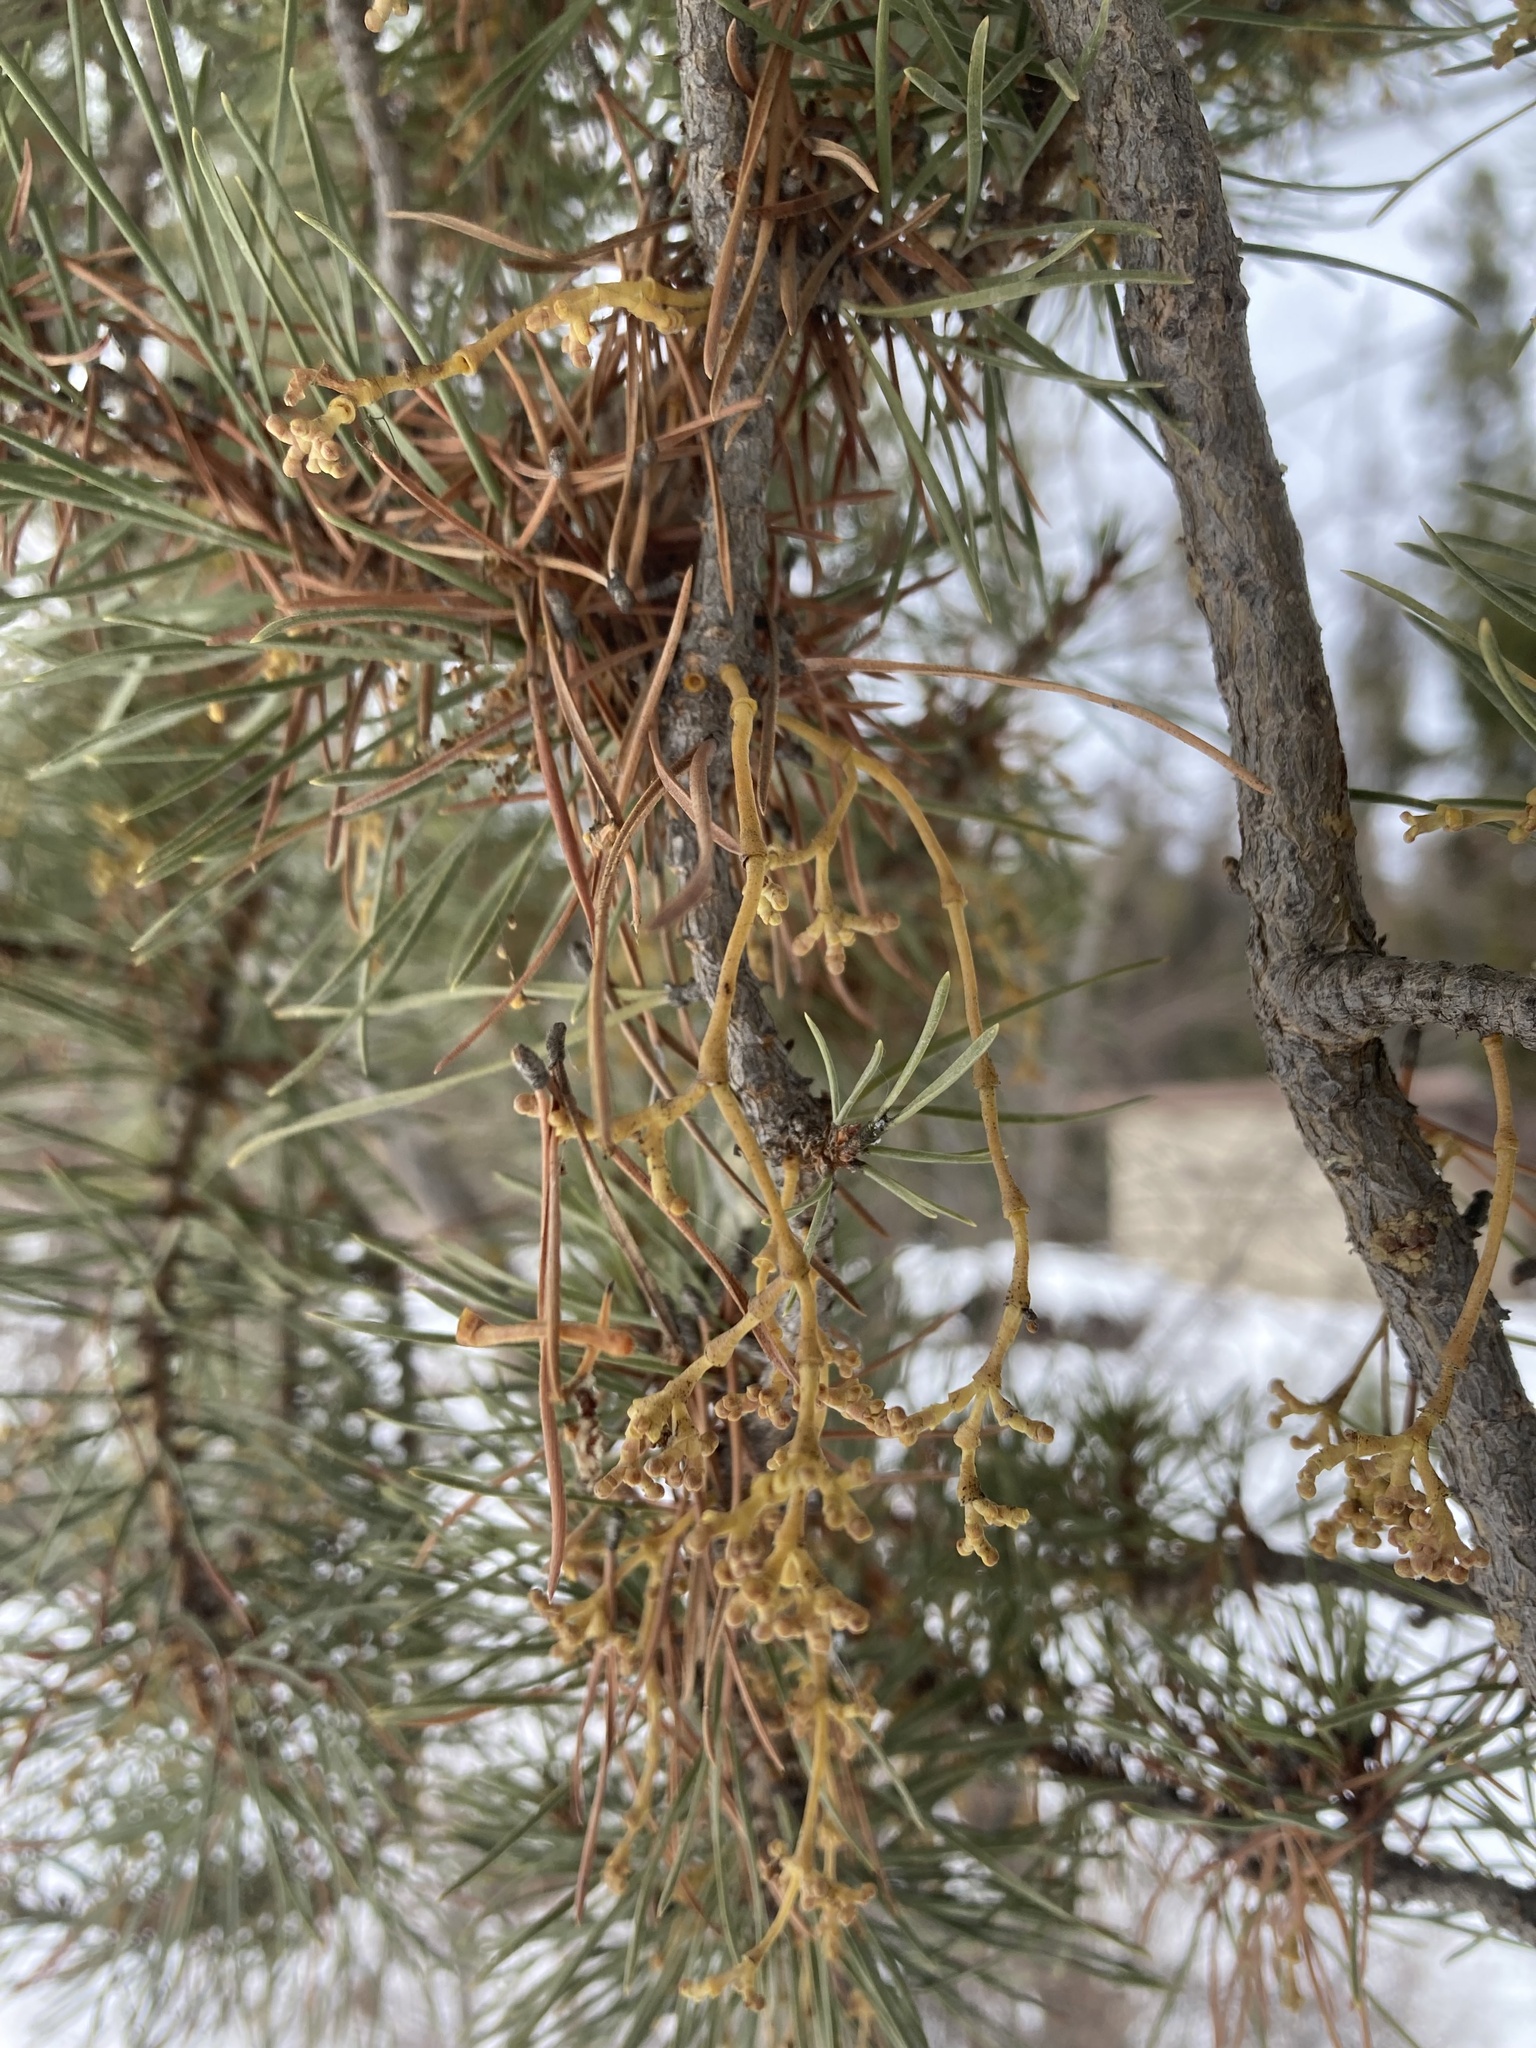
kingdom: Plantae
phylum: Tracheophyta
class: Magnoliopsida
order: Santalales
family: Viscaceae
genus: Arceuthobium
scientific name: Arceuthobium americanum
